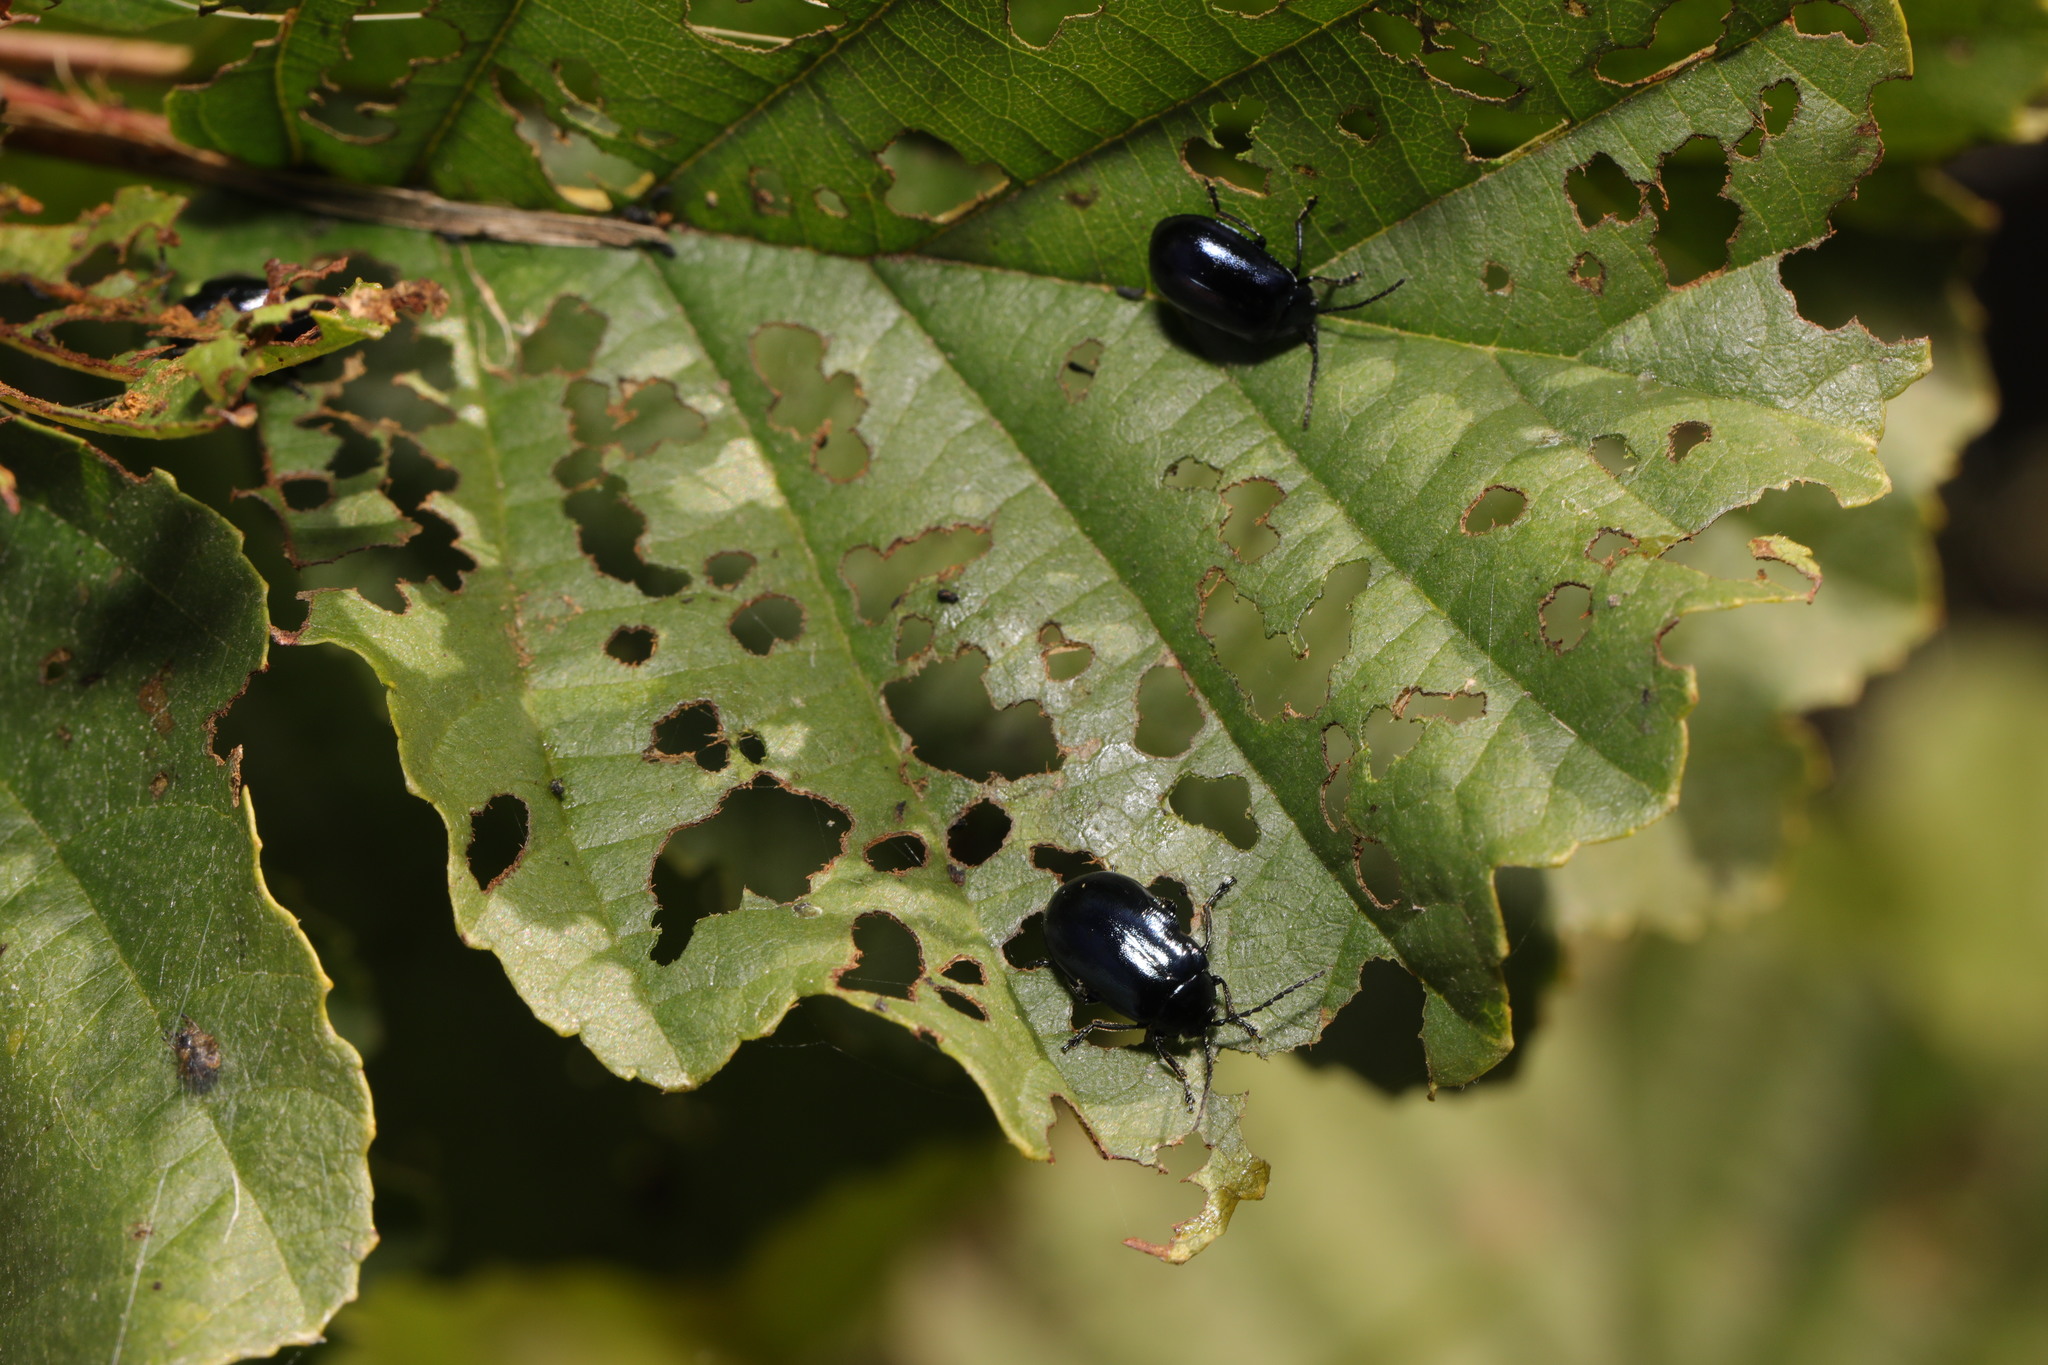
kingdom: Animalia
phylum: Arthropoda
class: Insecta
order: Coleoptera
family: Chrysomelidae
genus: Agelastica
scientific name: Agelastica alni
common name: Alder leaf beetle
